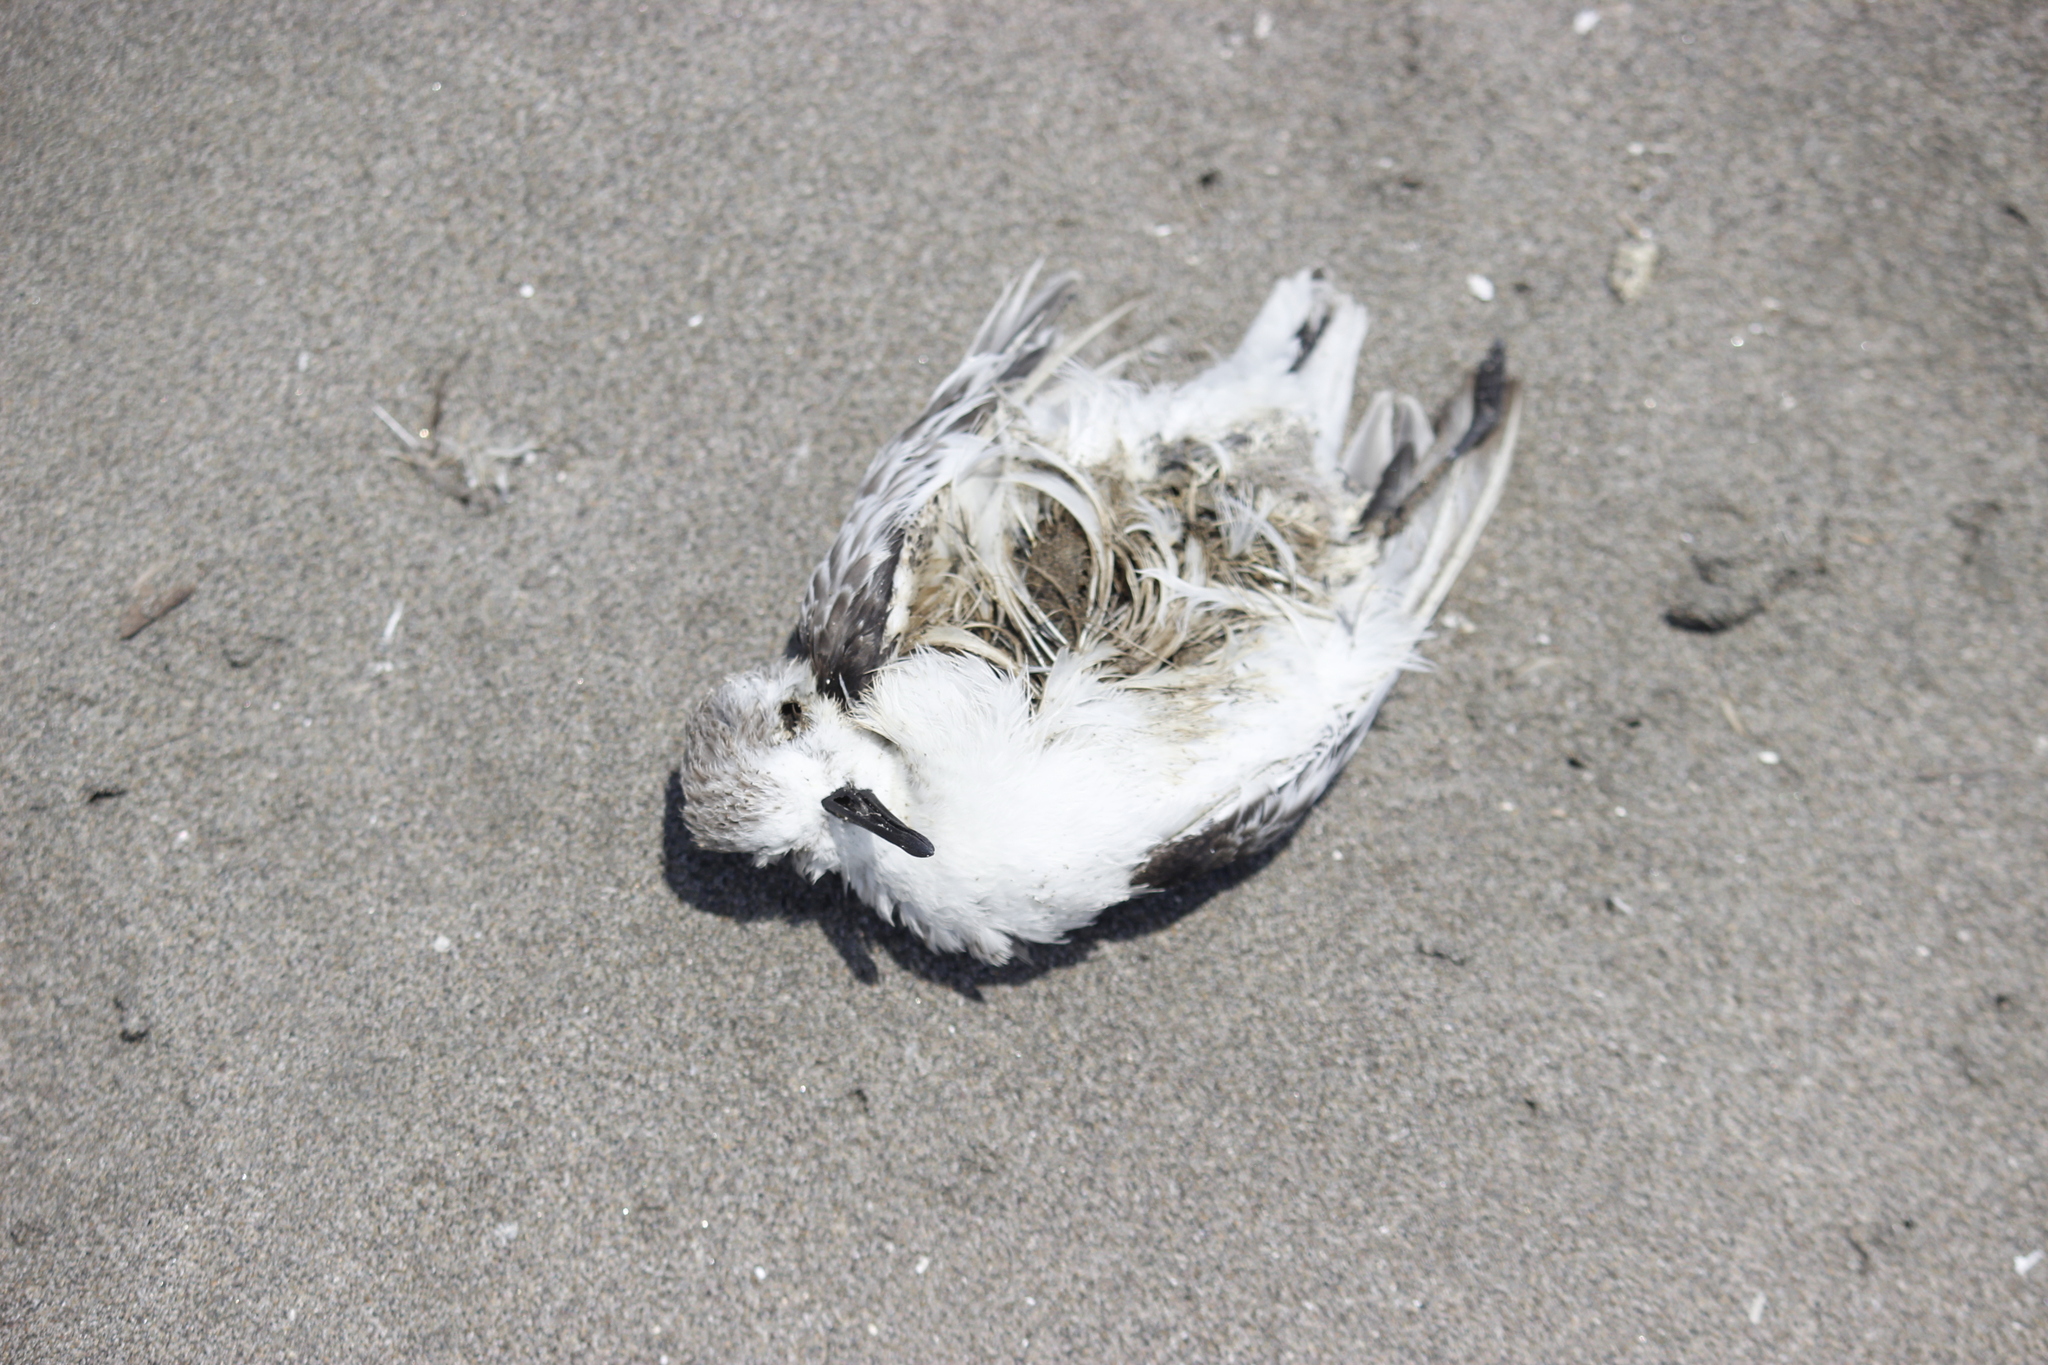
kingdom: Animalia
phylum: Chordata
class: Aves
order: Charadriiformes
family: Scolopacidae
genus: Calidris
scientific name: Calidris alba
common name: Sanderling
